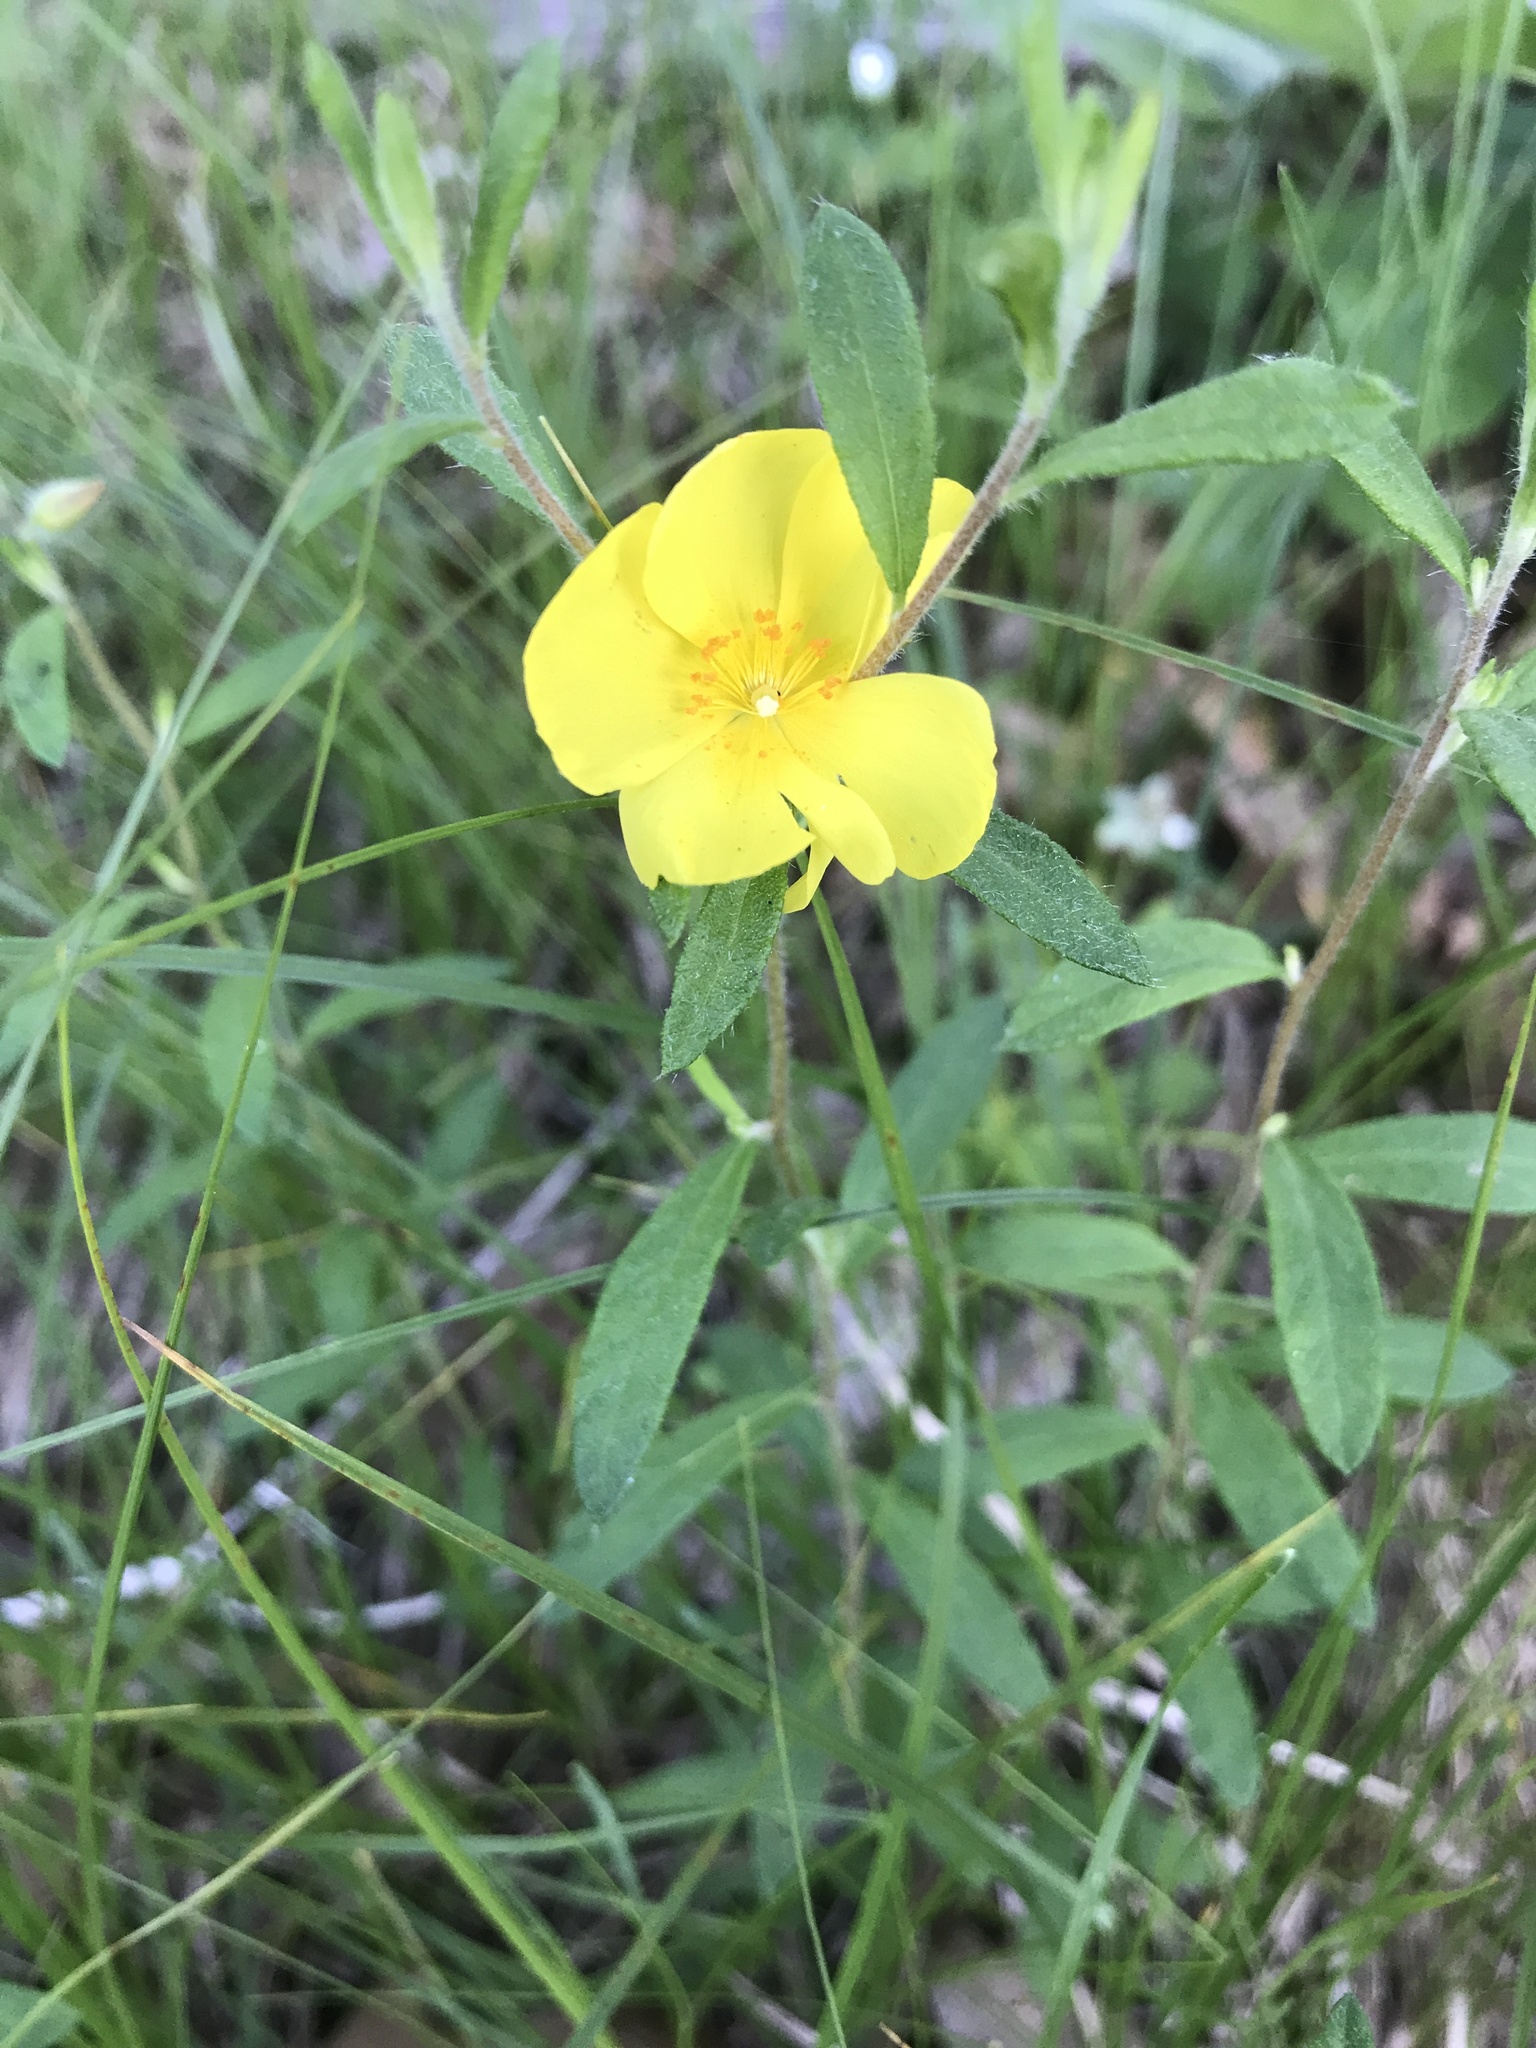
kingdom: Plantae
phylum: Tracheophyta
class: Magnoliopsida
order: Malvales
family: Cistaceae
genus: Crocanthemum
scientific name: Crocanthemum canadense
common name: Canada frostweed
